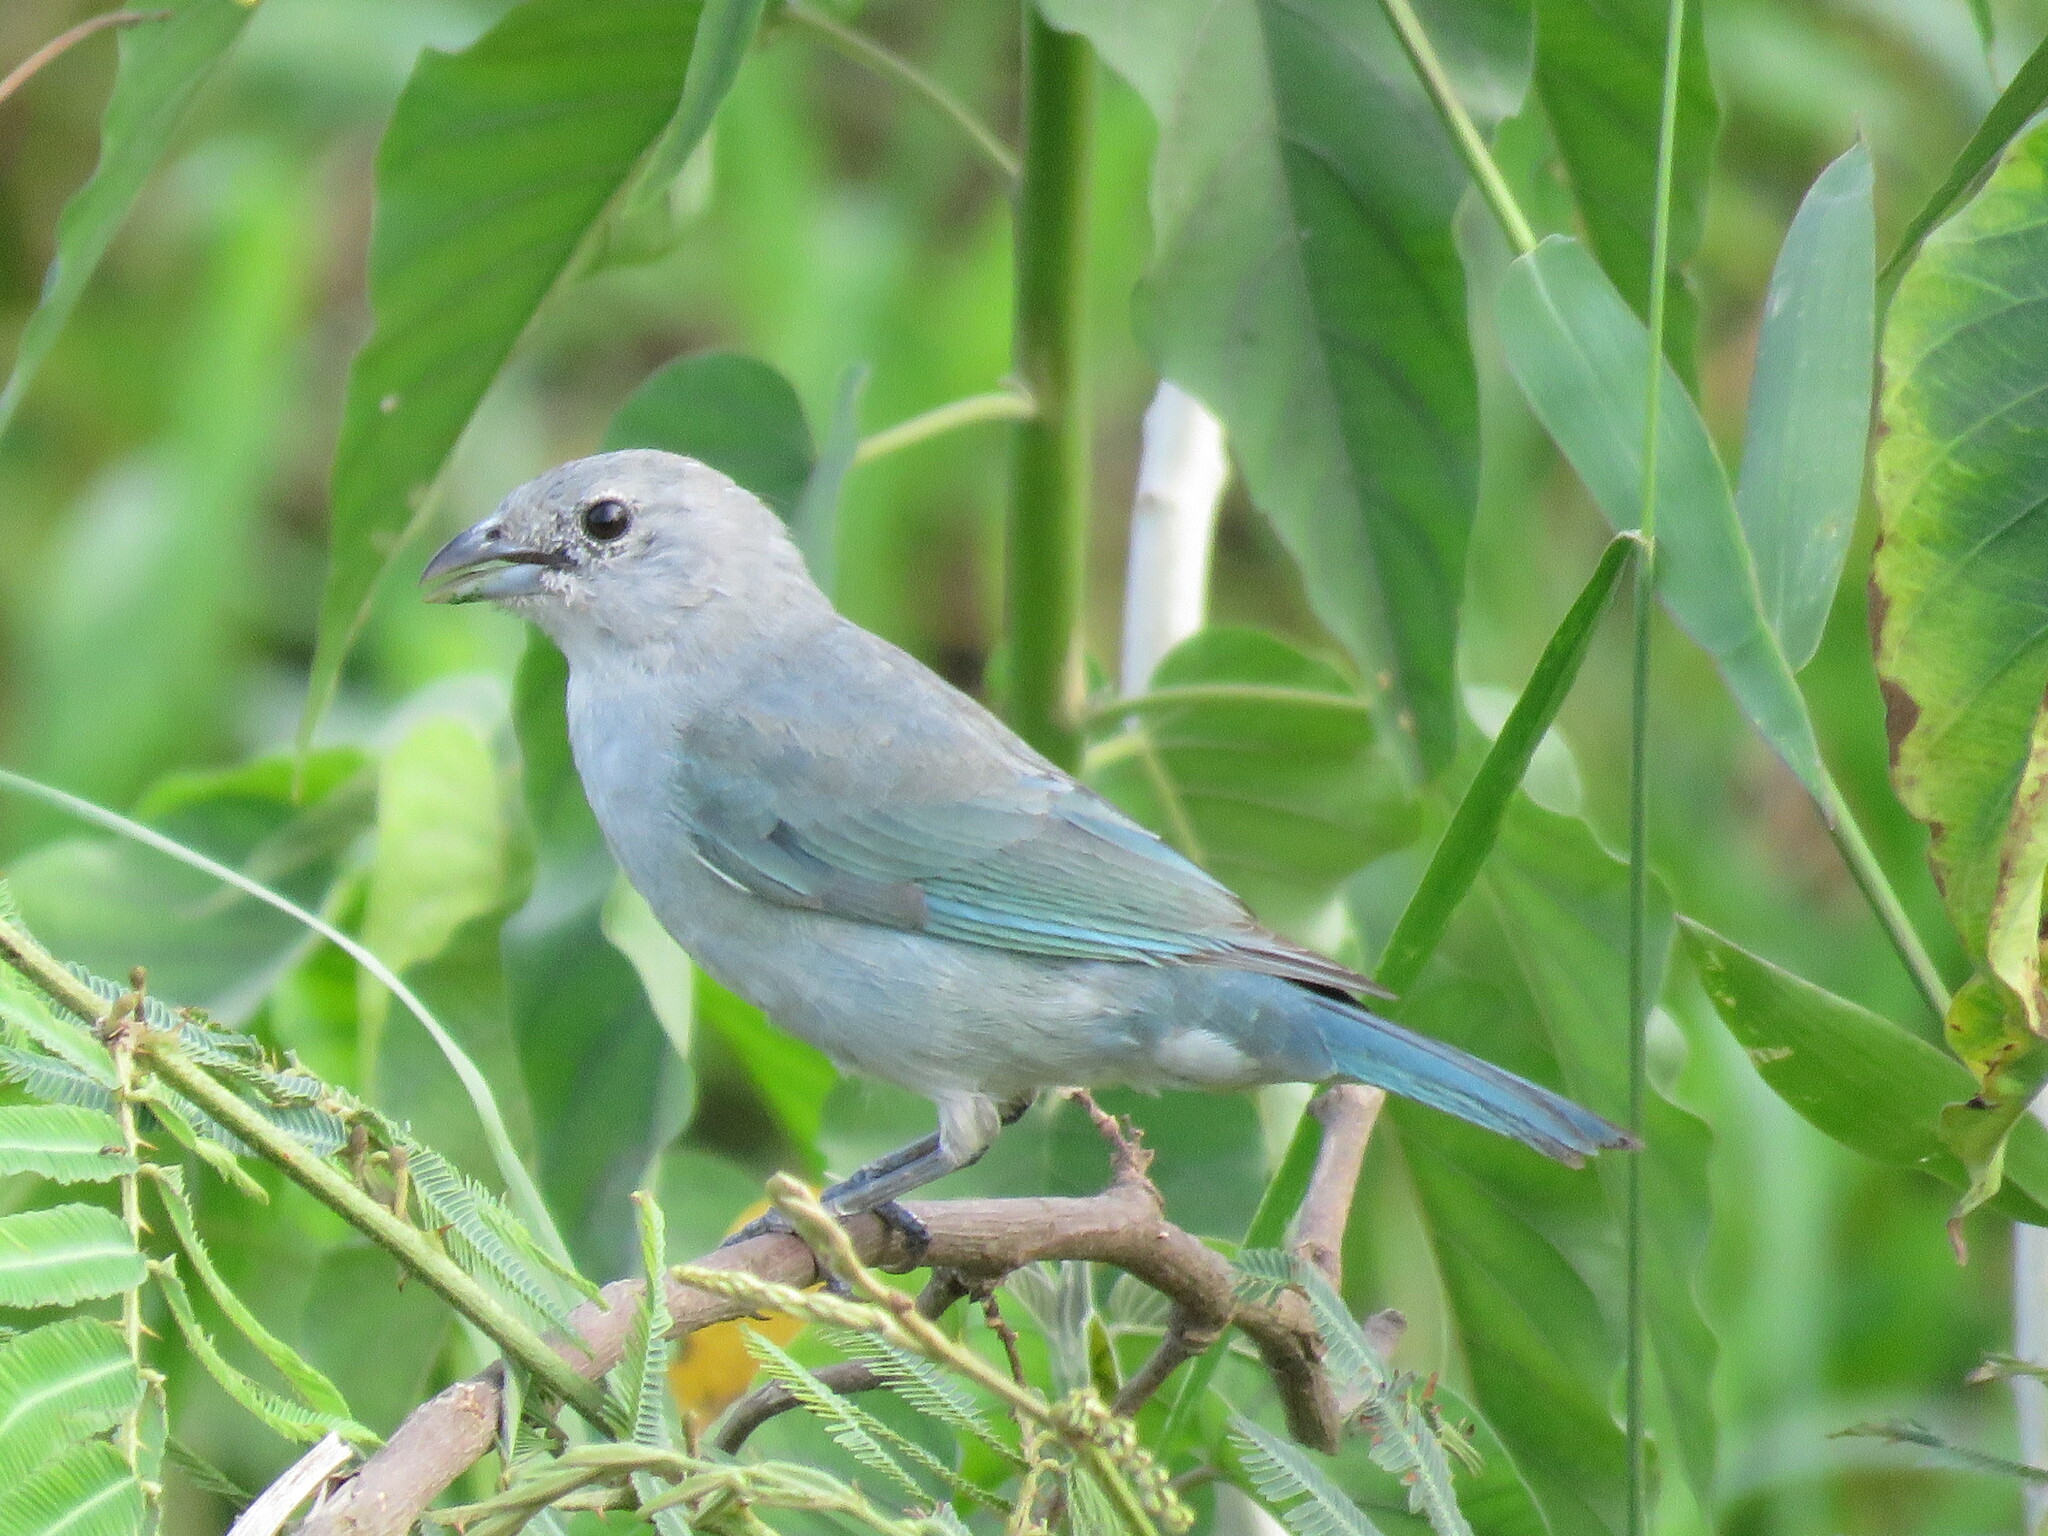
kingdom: Animalia
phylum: Chordata
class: Aves
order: Passeriformes
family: Thraupidae
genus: Thraupis
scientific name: Thraupis sayaca
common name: Sayaca tanager
